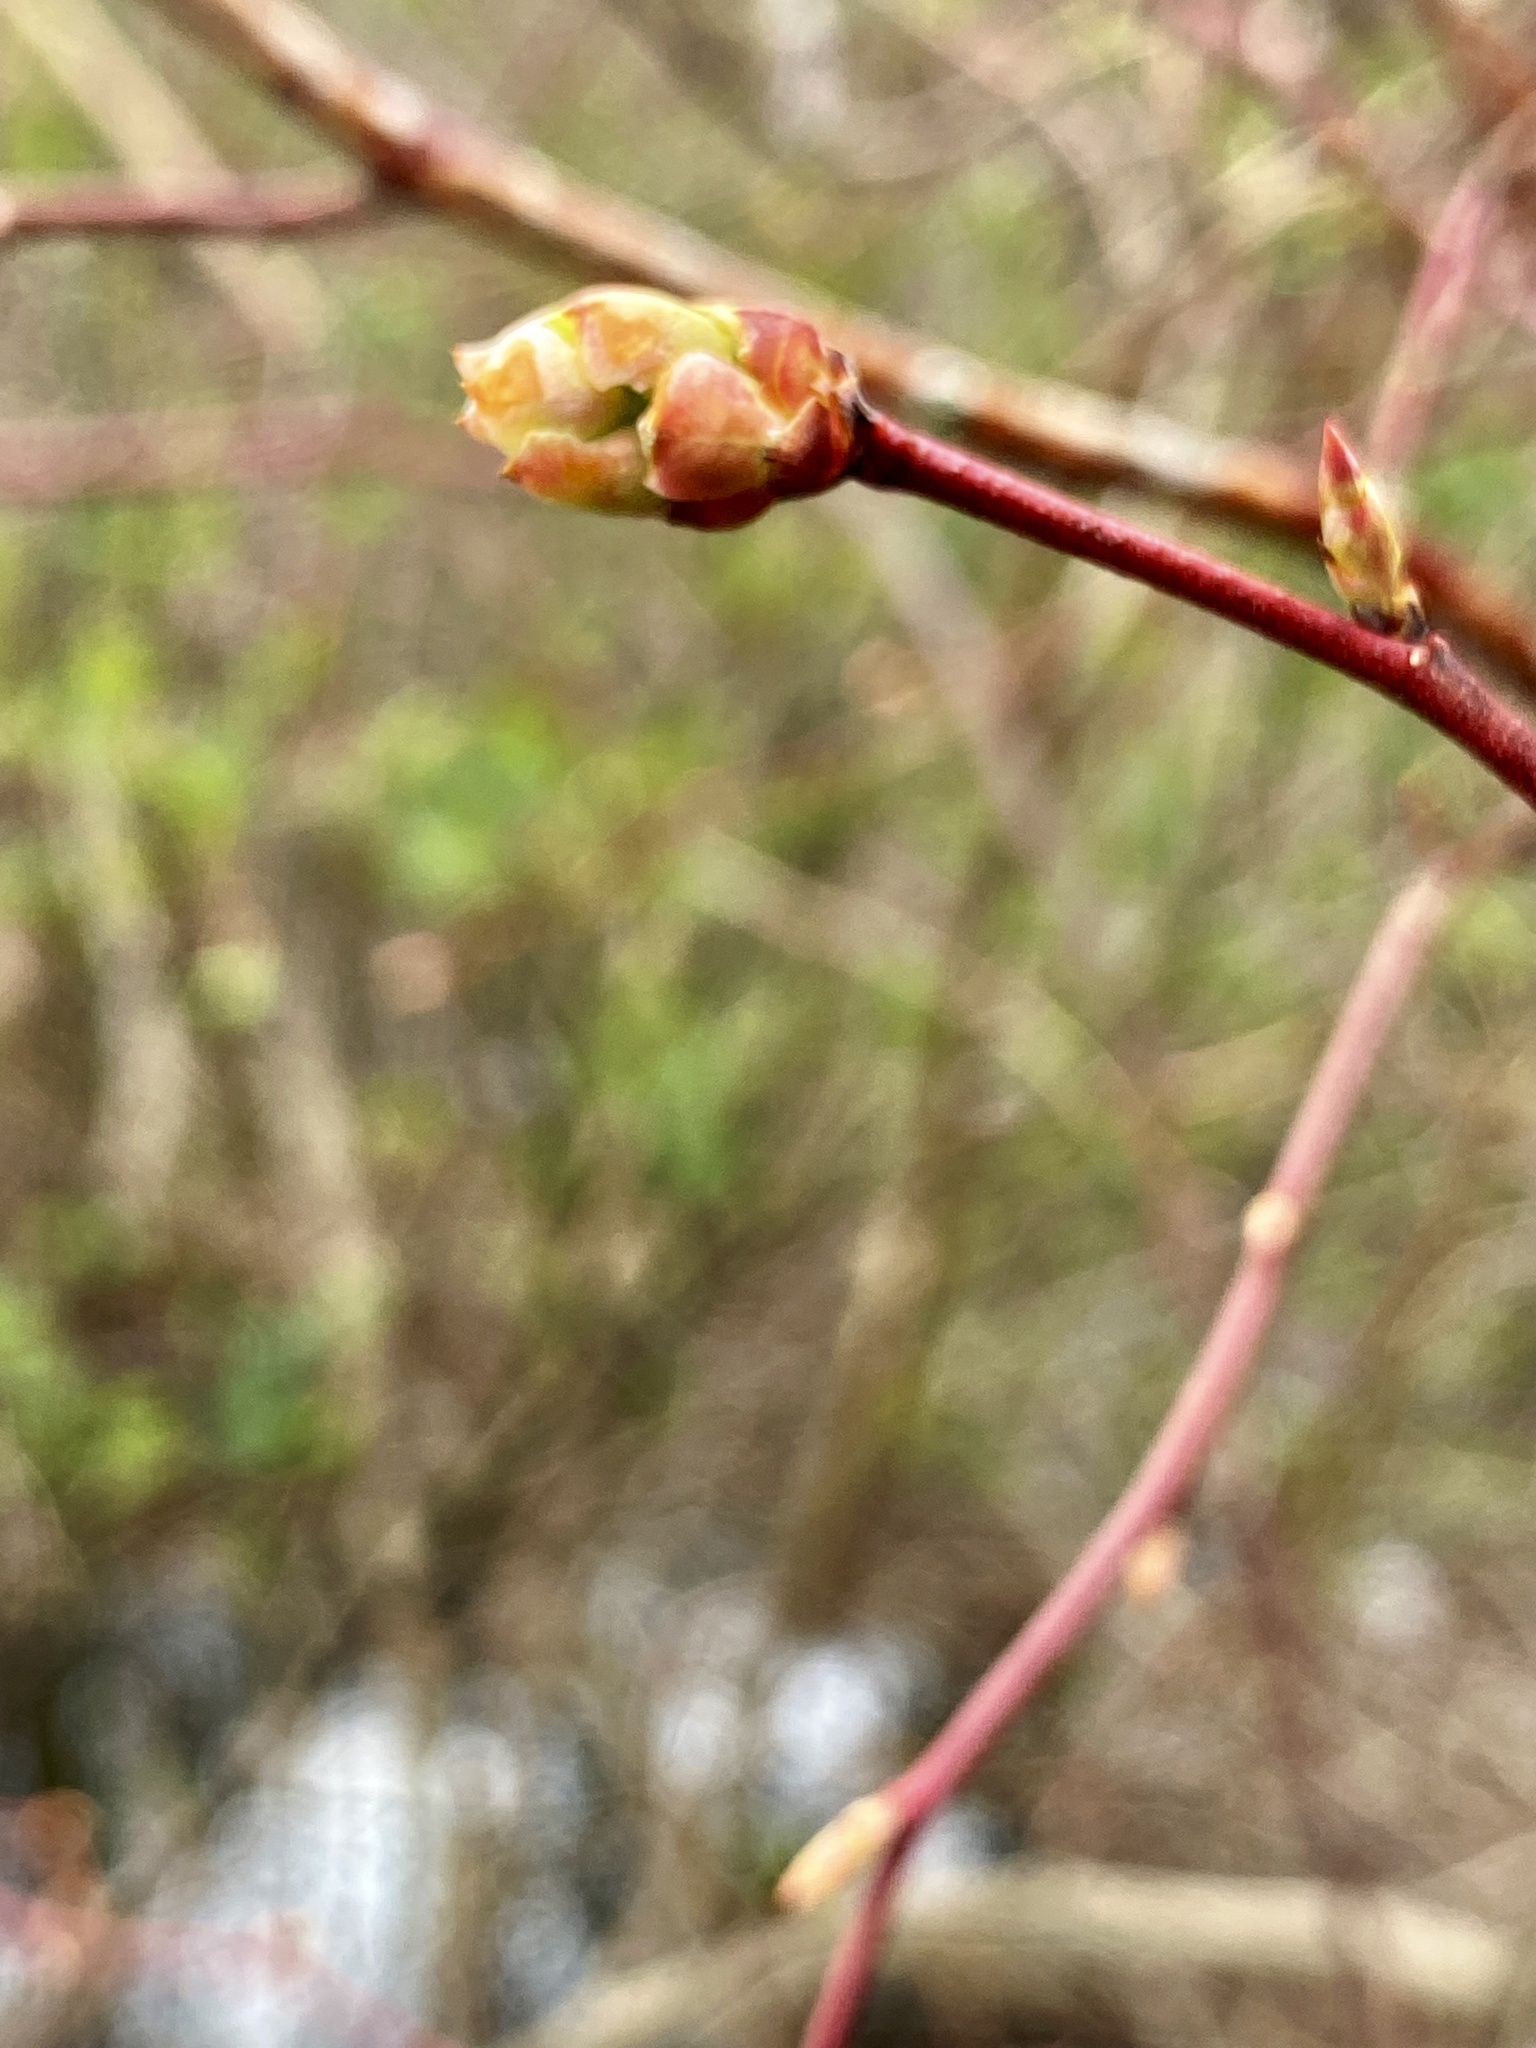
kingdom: Plantae
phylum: Tracheophyta
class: Magnoliopsida
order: Ericales
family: Ericaceae
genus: Vaccinium
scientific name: Vaccinium corymbosum
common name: Blueberry
